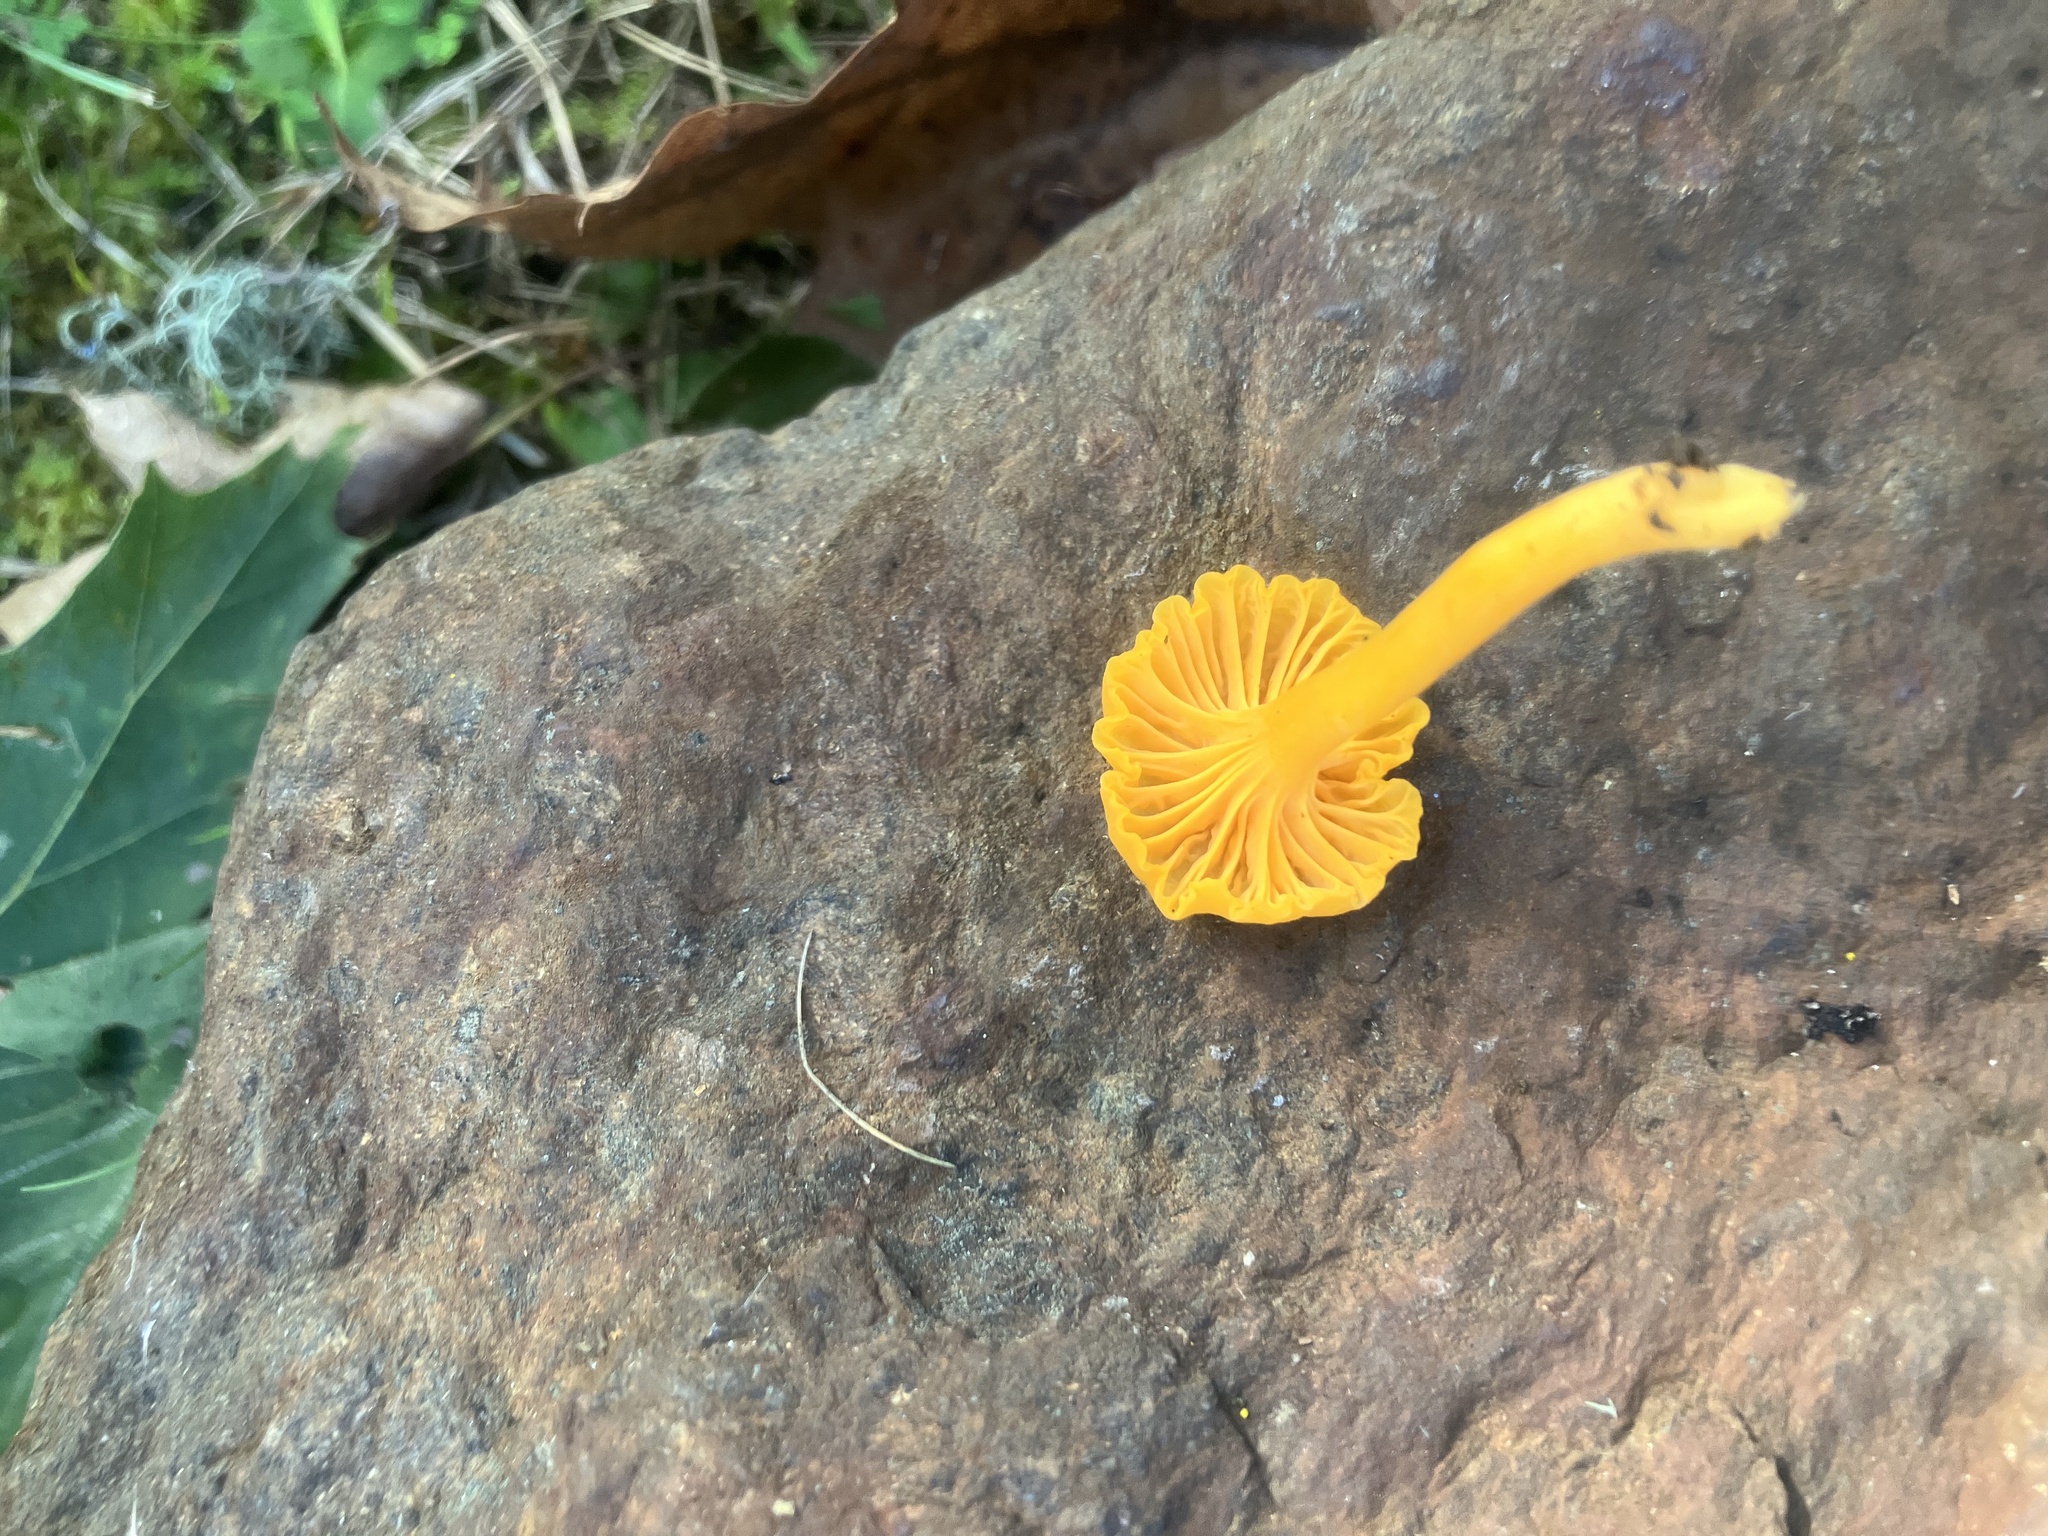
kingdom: Fungi
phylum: Basidiomycota
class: Agaricomycetes
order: Cantharellales
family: Hydnaceae
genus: Craterellus
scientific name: Craterellus tubaeformis
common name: Yellowfoot
